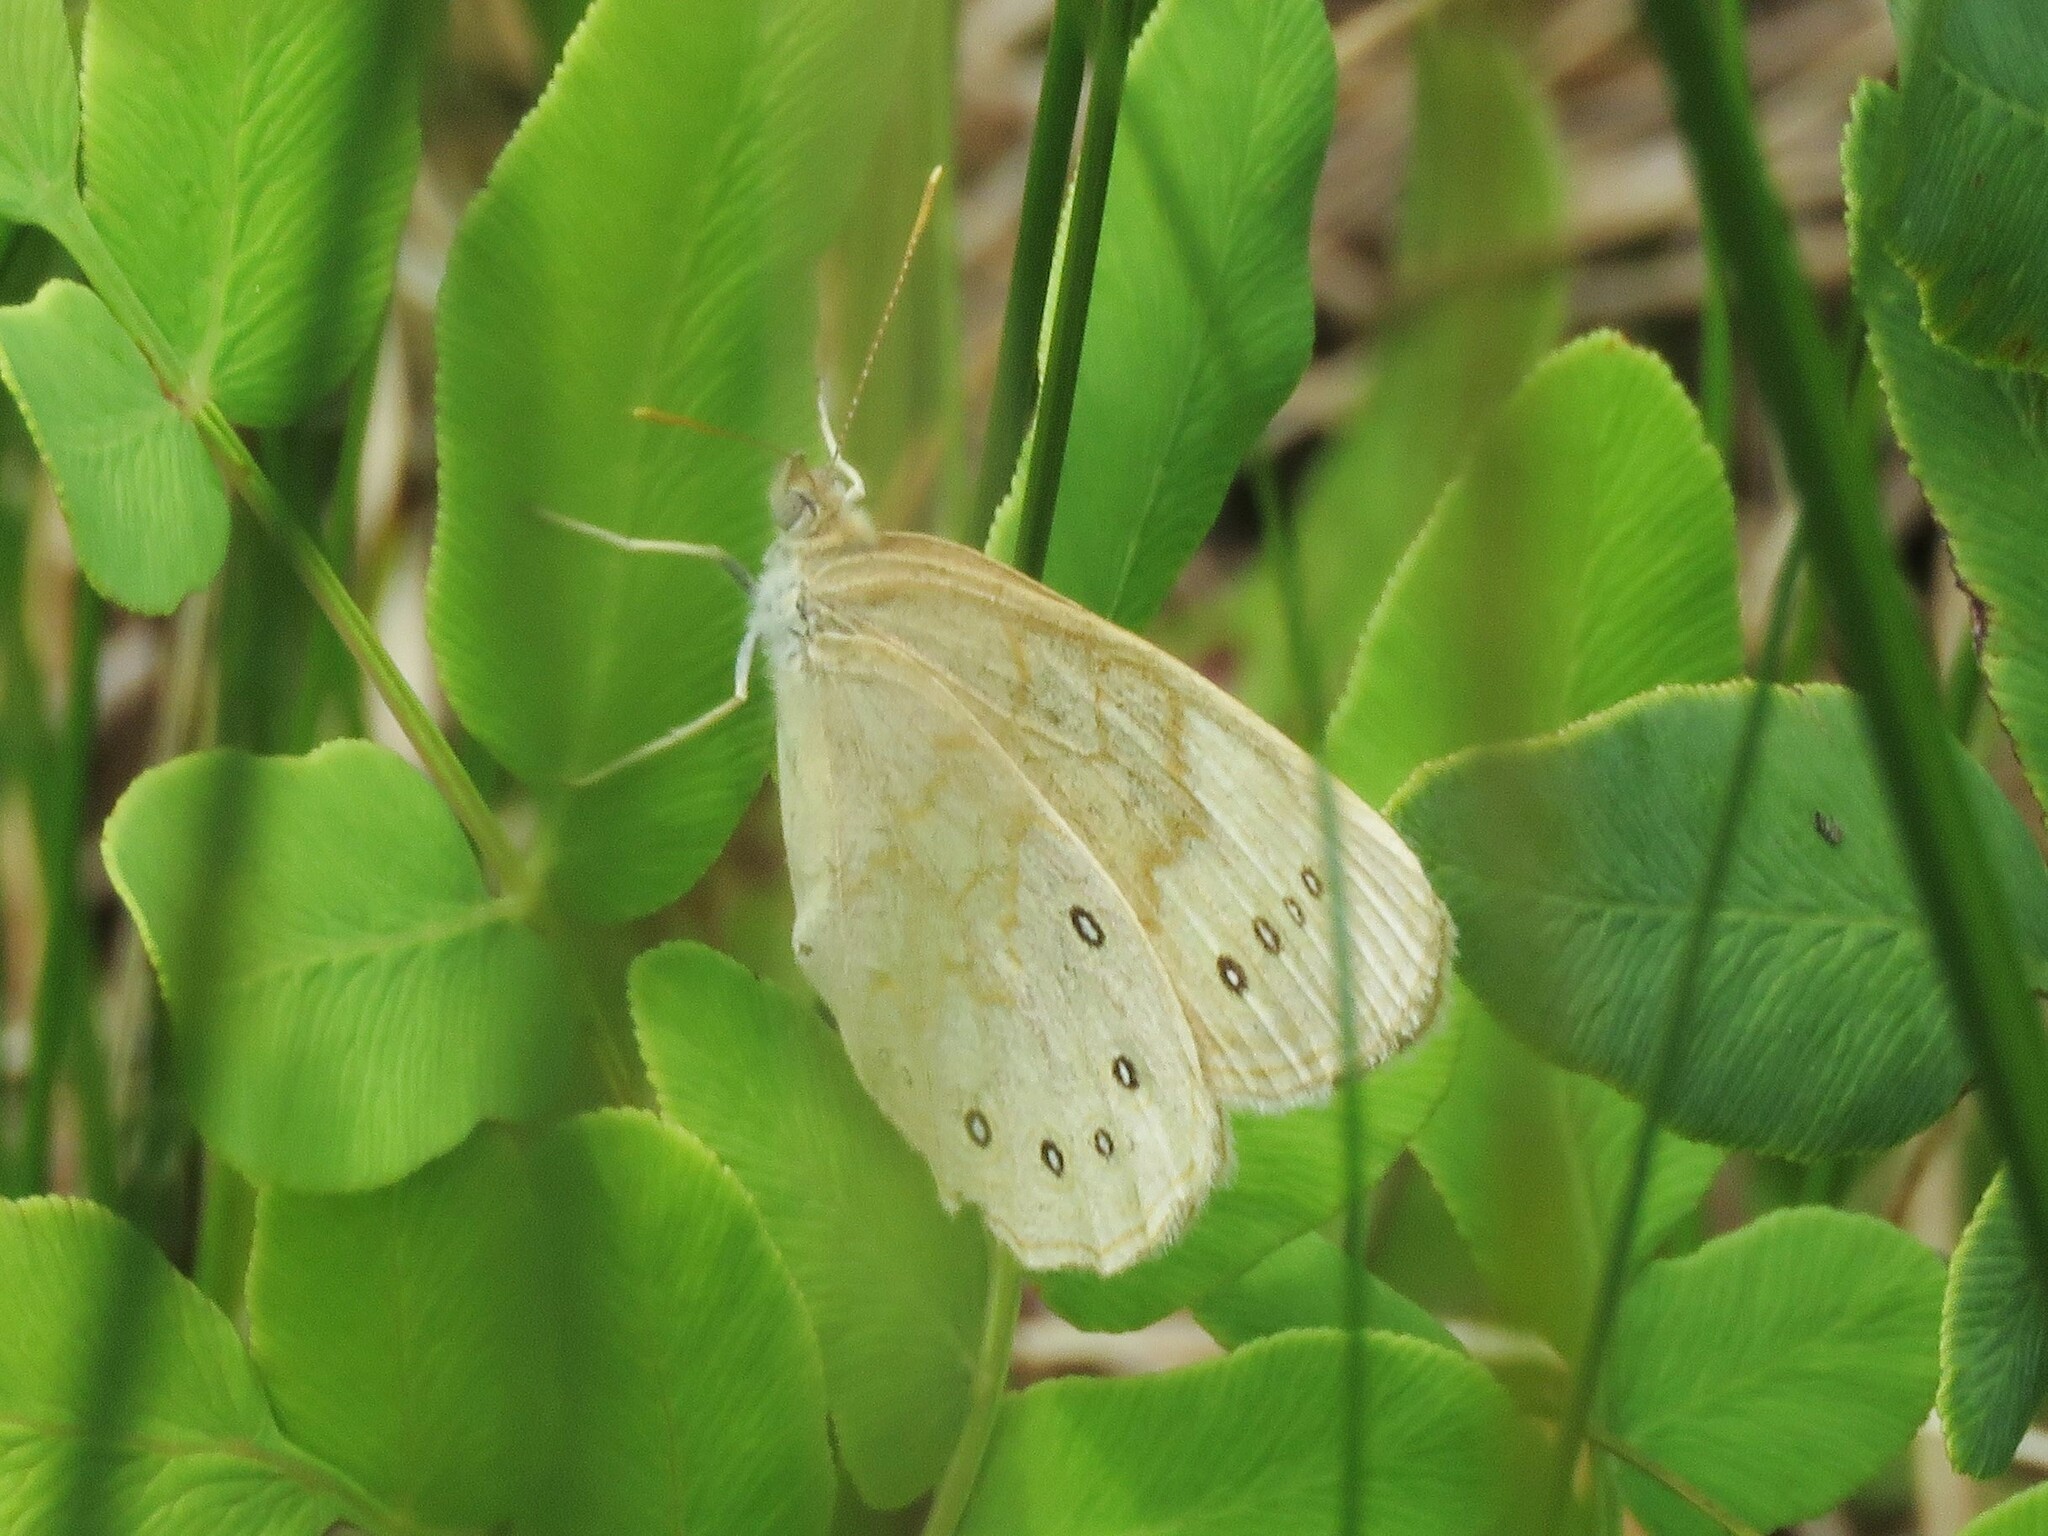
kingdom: Animalia
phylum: Arthropoda
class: Insecta
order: Lepidoptera
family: Nymphalidae
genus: Lethe
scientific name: Lethe eurydice
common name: Eyed brown
